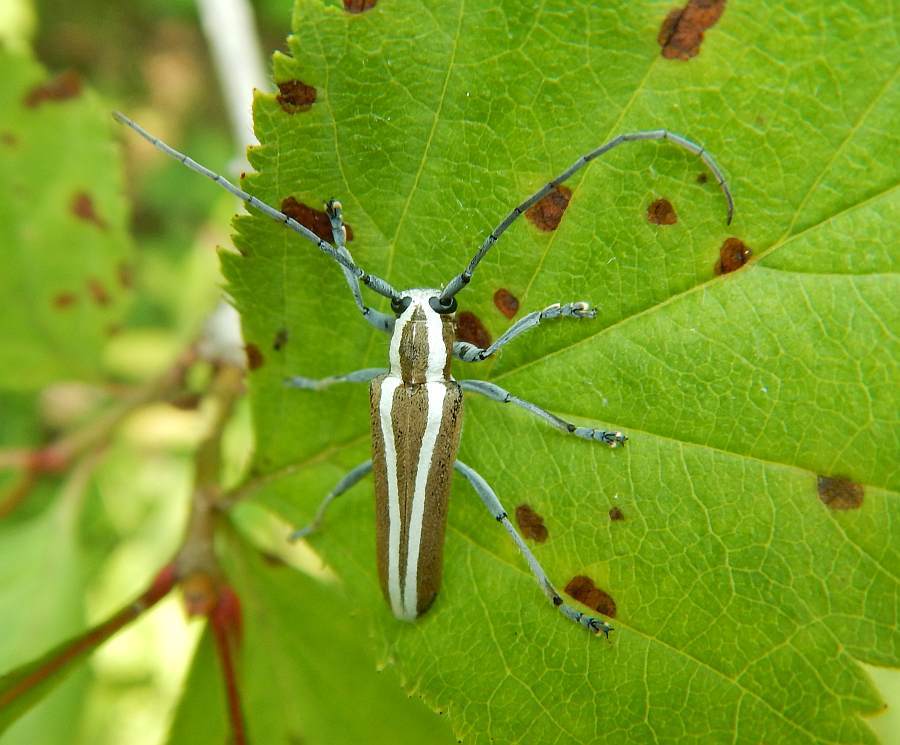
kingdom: Animalia
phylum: Arthropoda
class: Insecta
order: Coleoptera
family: Cerambycidae
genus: Saperda
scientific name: Saperda candida
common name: Round-headed borer
